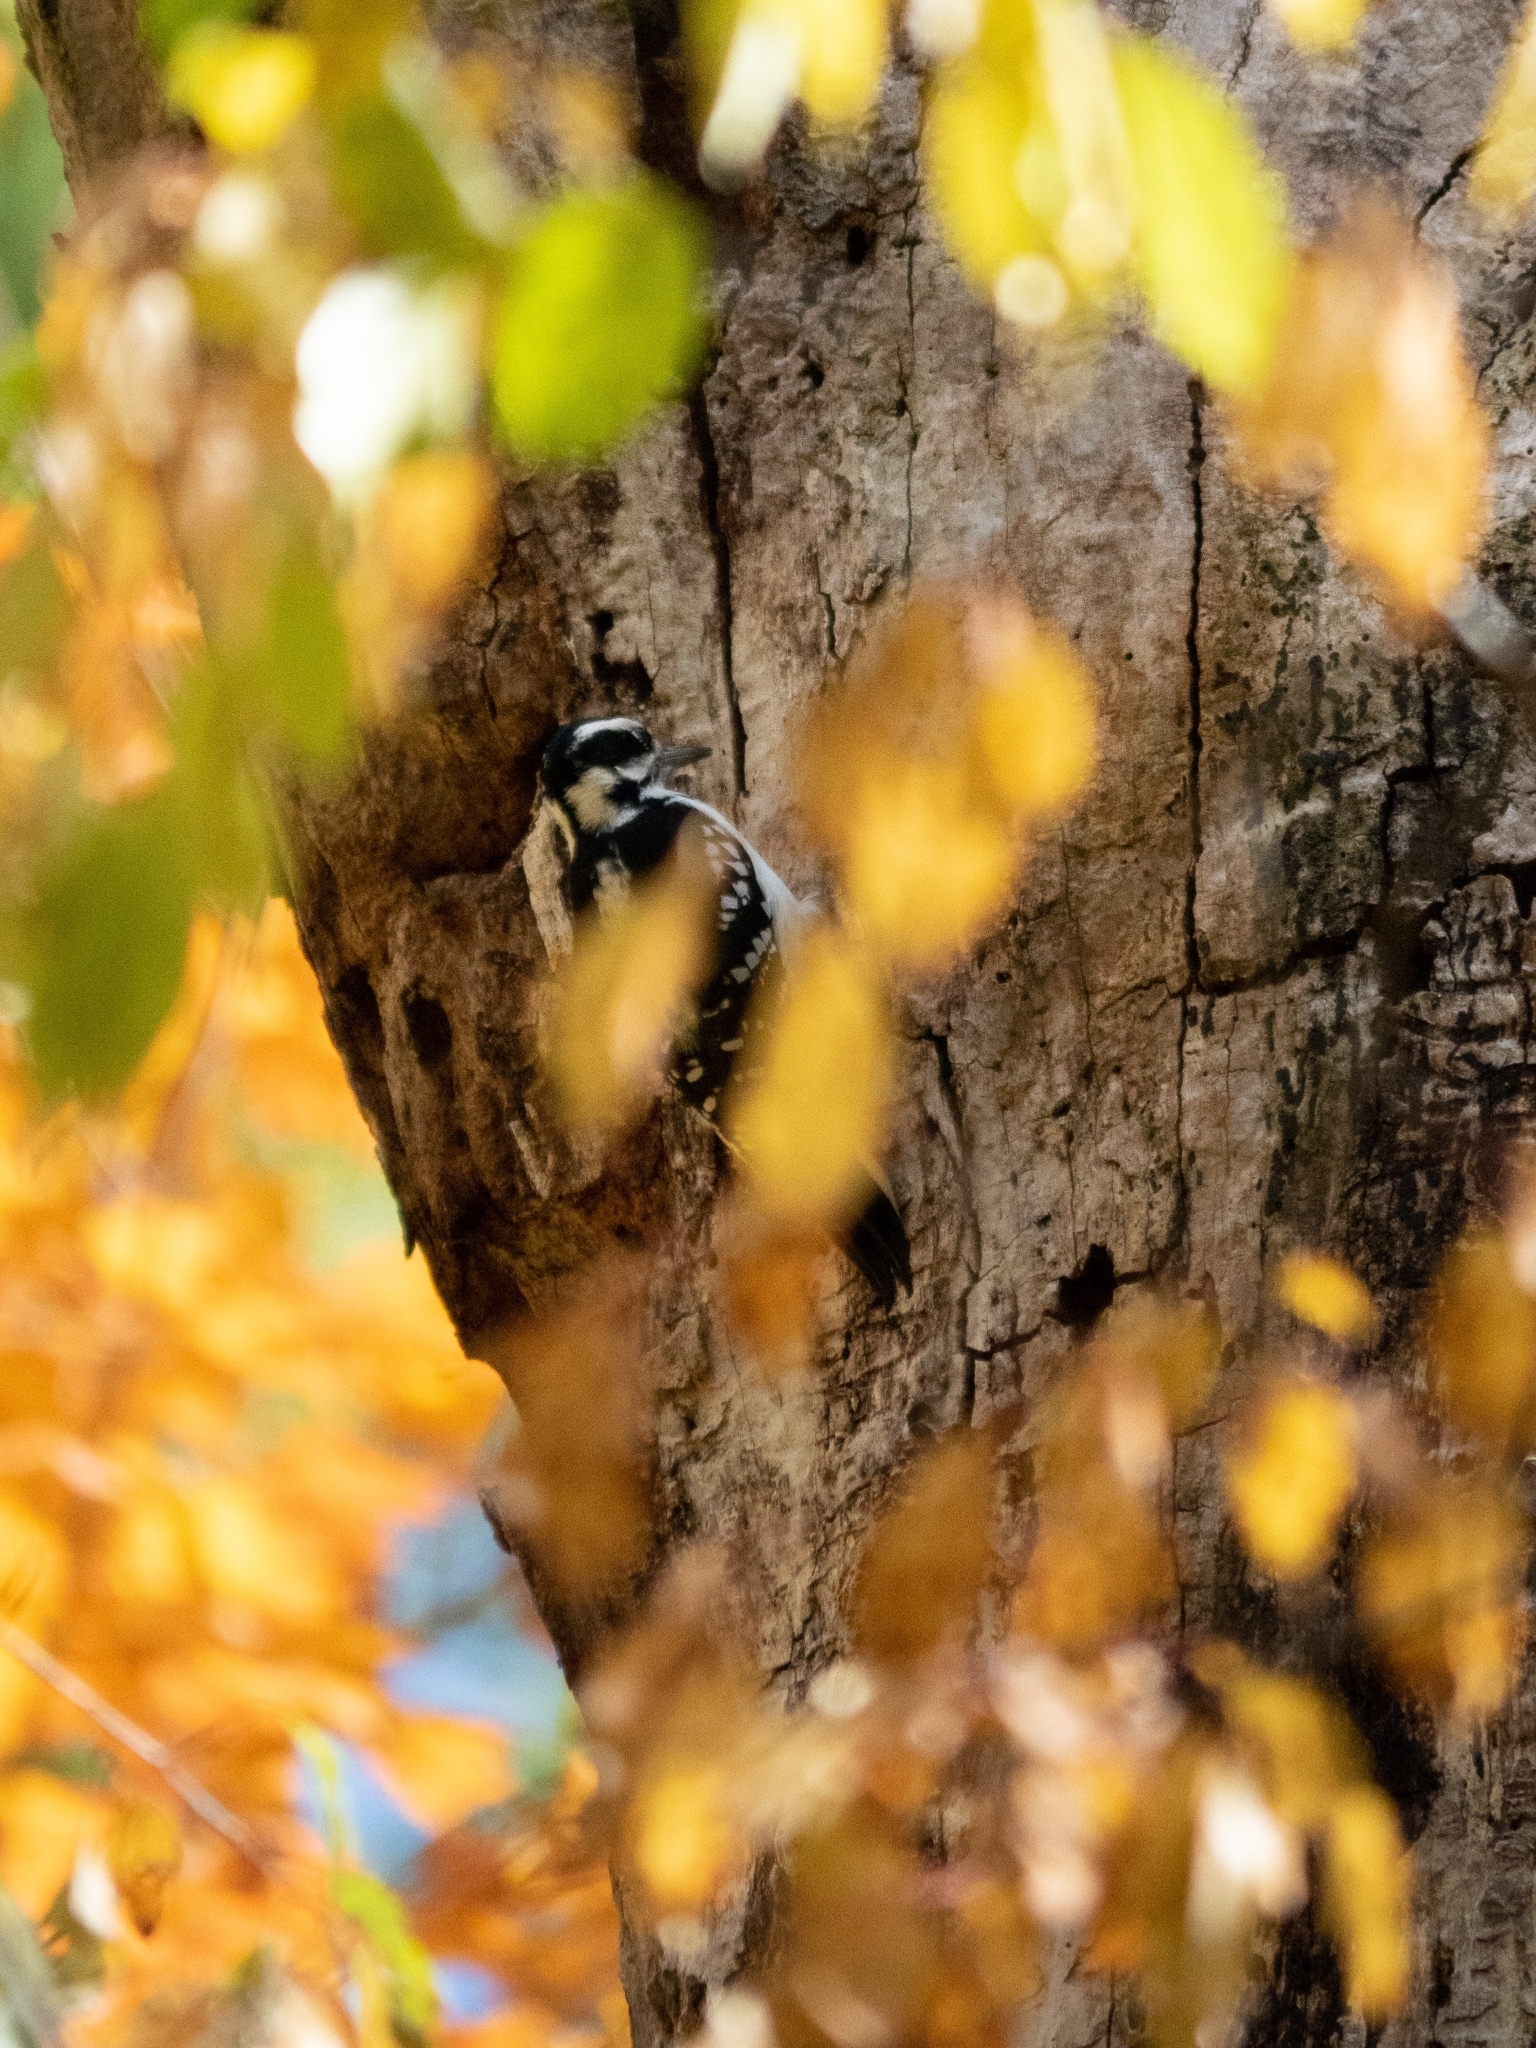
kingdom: Animalia
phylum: Chordata
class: Aves
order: Piciformes
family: Picidae
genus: Leuconotopicus
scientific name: Leuconotopicus villosus
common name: Hairy woodpecker
